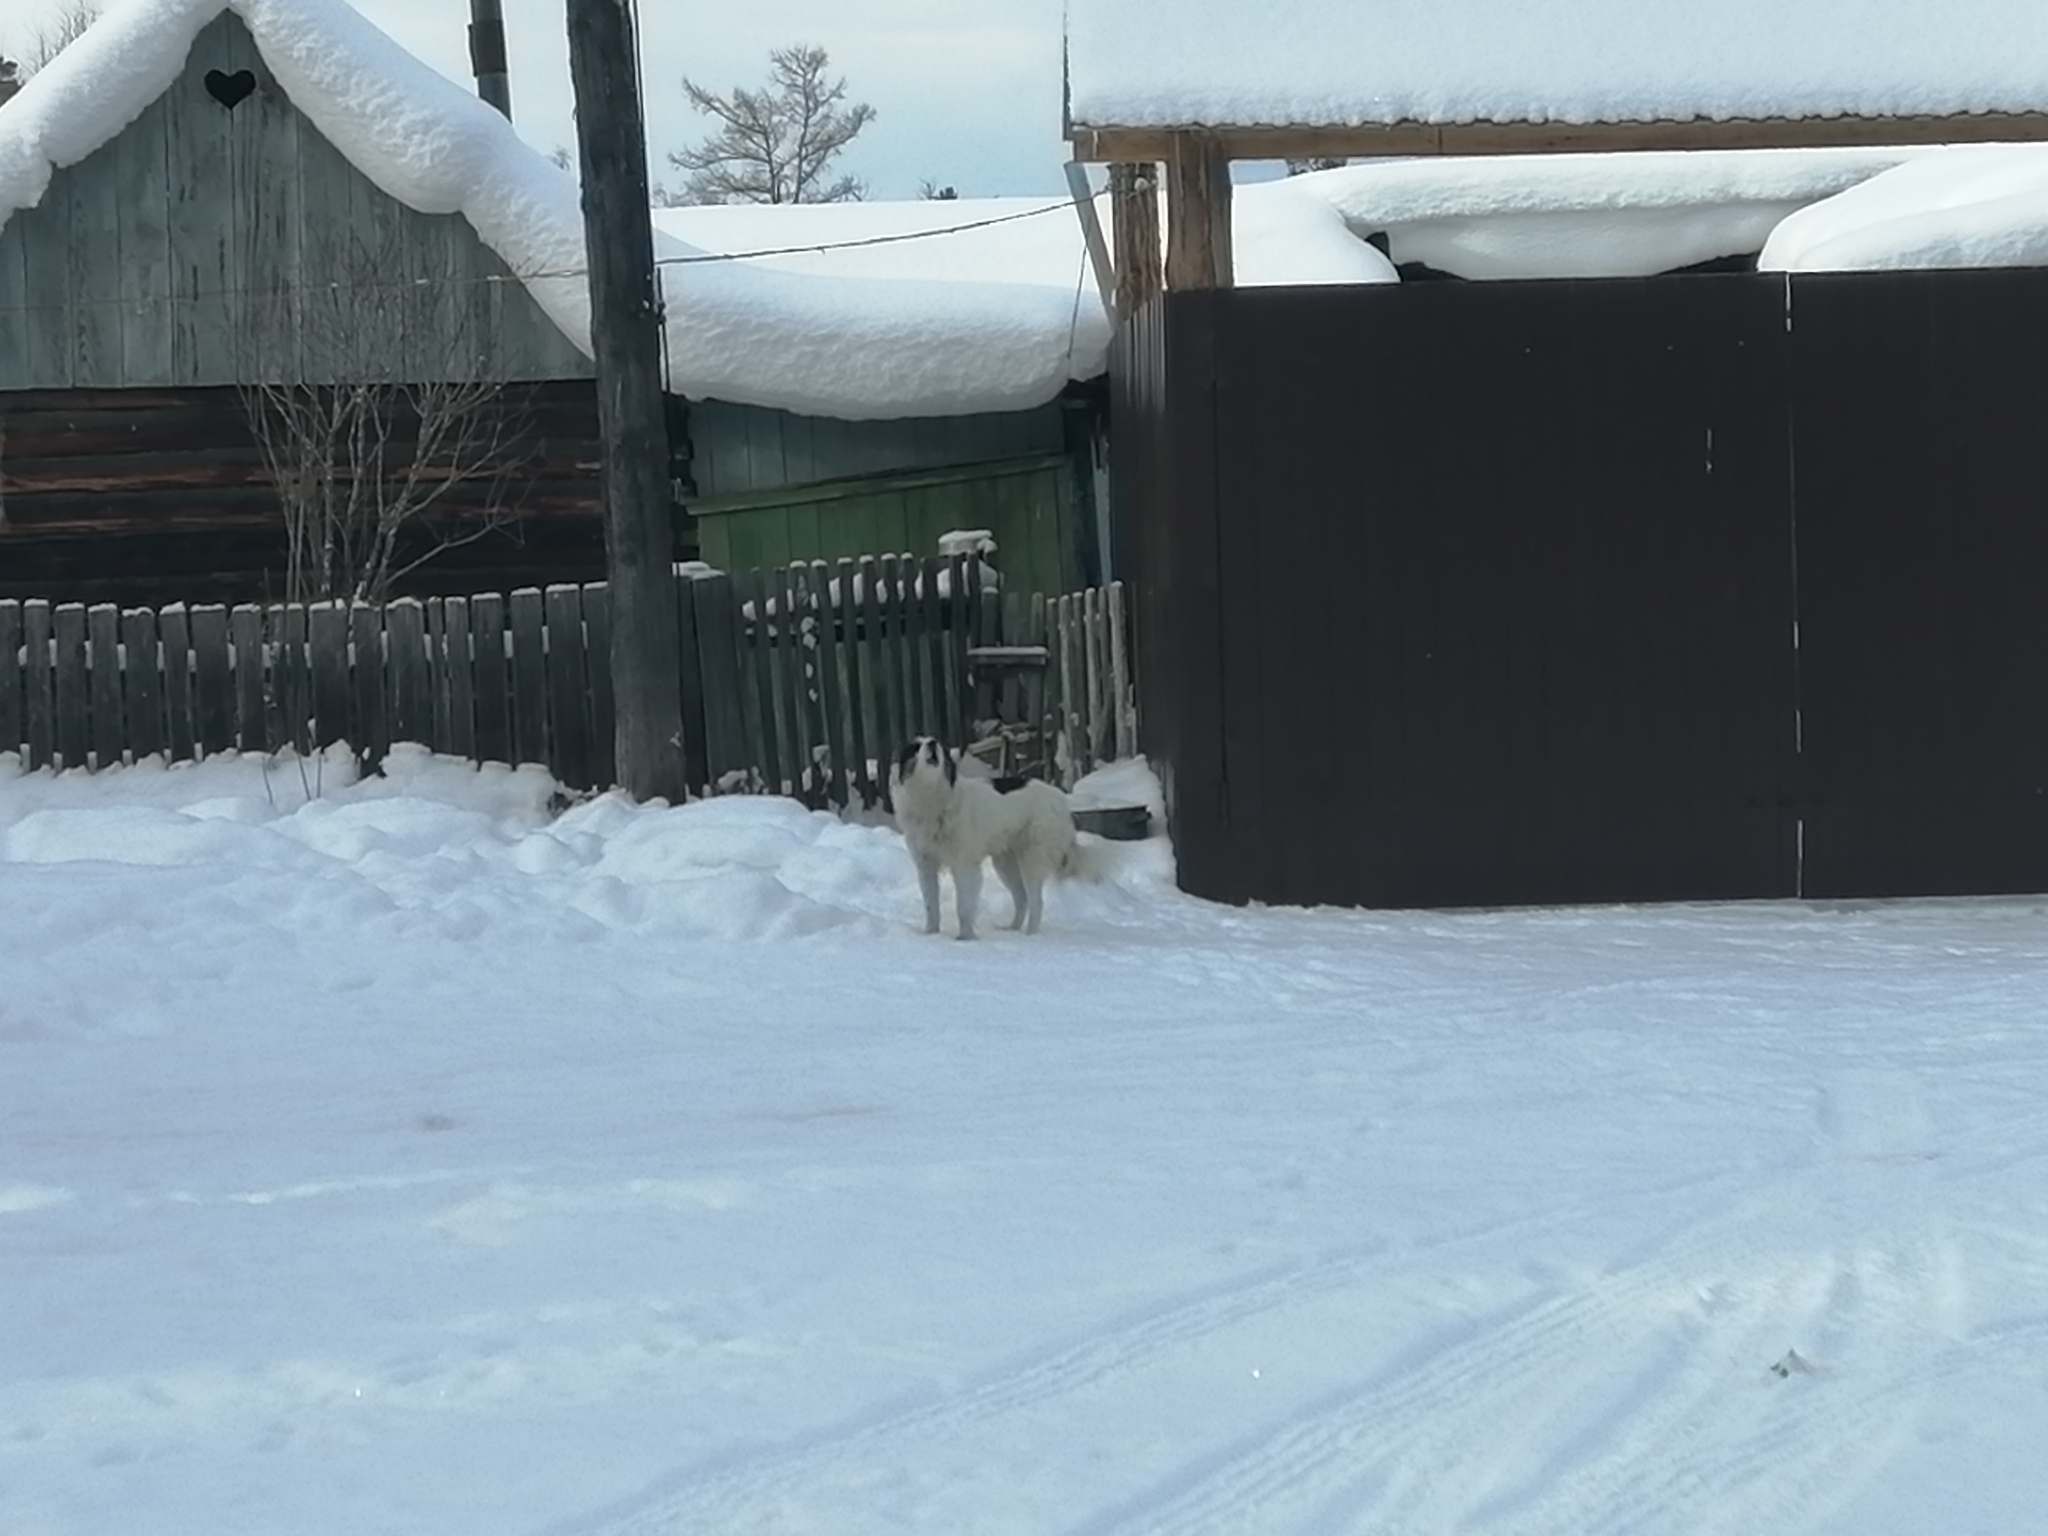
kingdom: Animalia
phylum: Chordata
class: Mammalia
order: Carnivora
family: Canidae
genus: Canis
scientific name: Canis lupus
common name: Gray wolf
